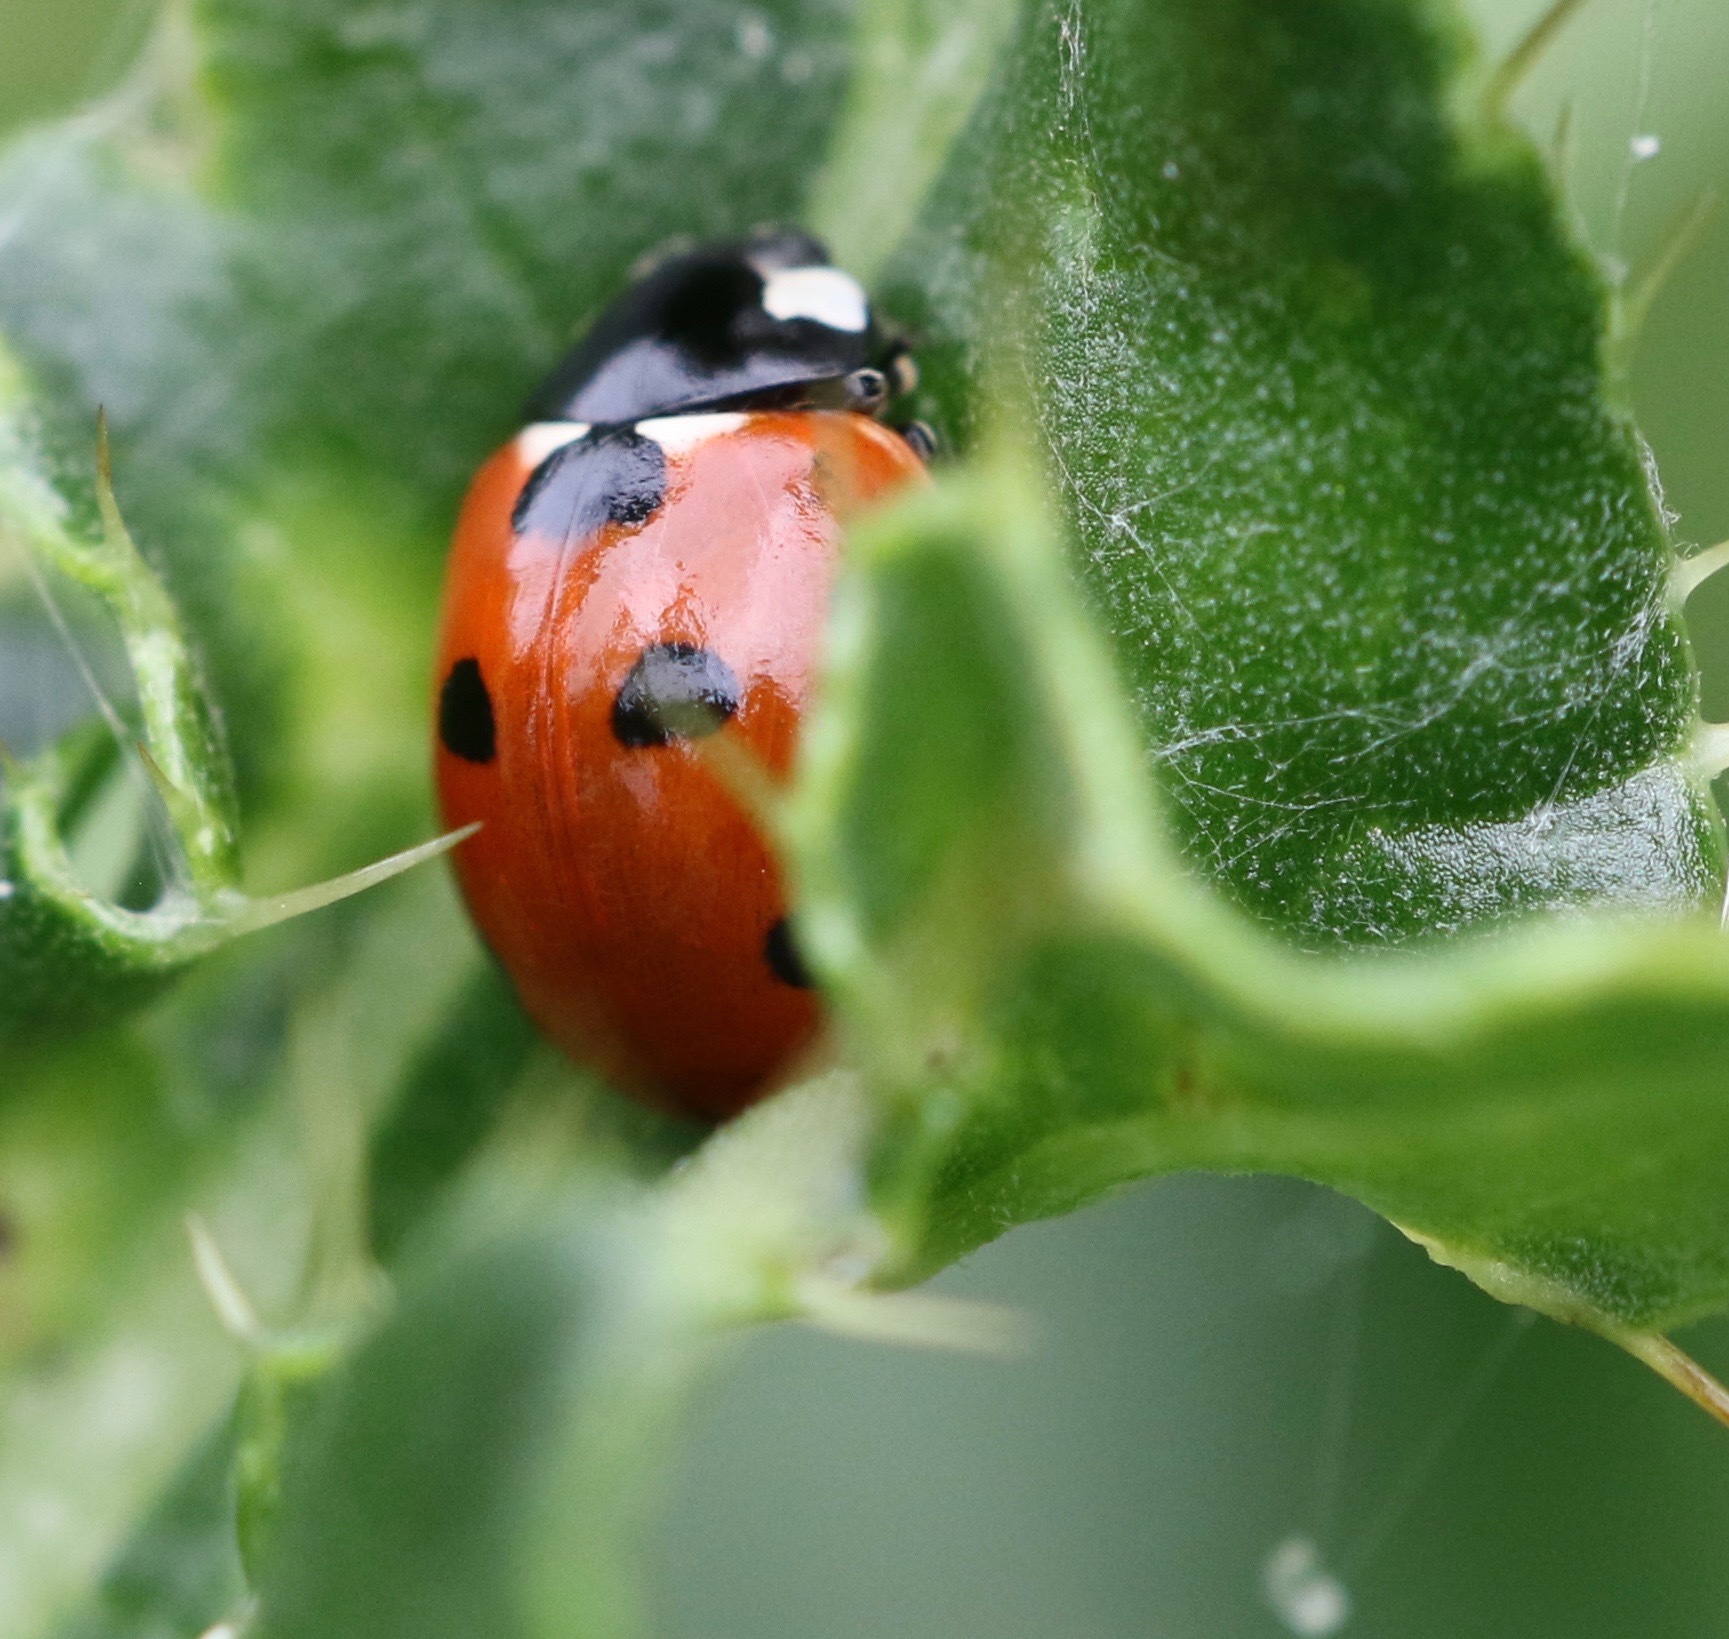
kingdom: Animalia
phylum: Arthropoda
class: Insecta
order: Coleoptera
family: Coccinellidae
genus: Coccinella
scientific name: Coccinella septempunctata
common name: Sevenspotted lady beetle
